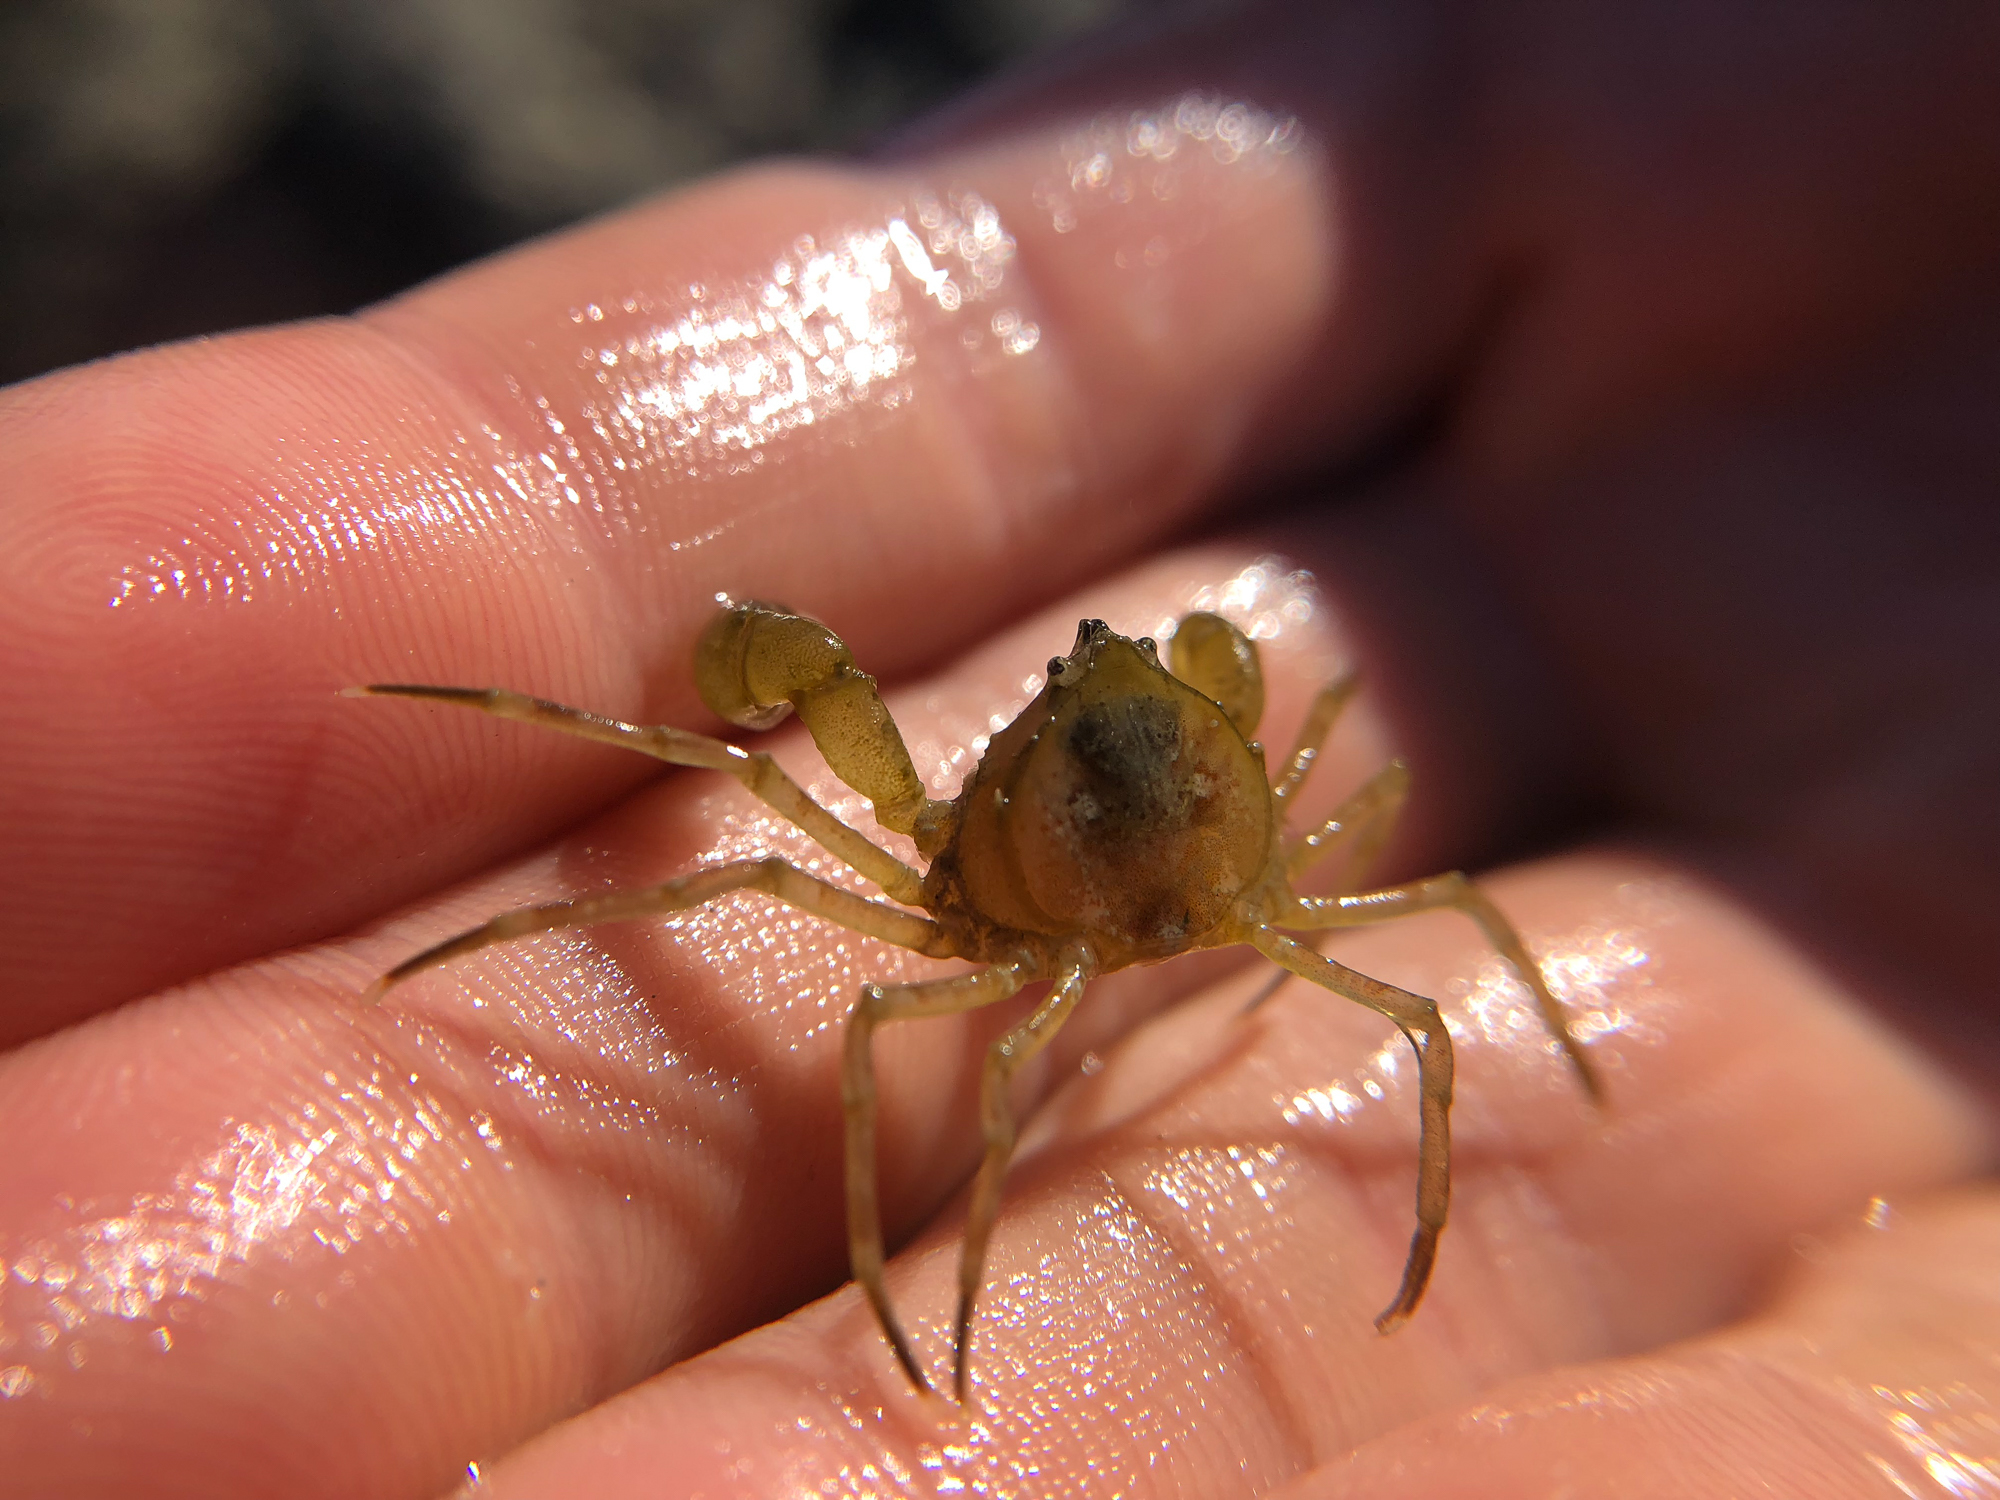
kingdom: Animalia
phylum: Arthropoda
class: Malacostraca
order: Decapoda
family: Hymenosomatidae
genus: Halicarcinus
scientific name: Halicarcinus varius
